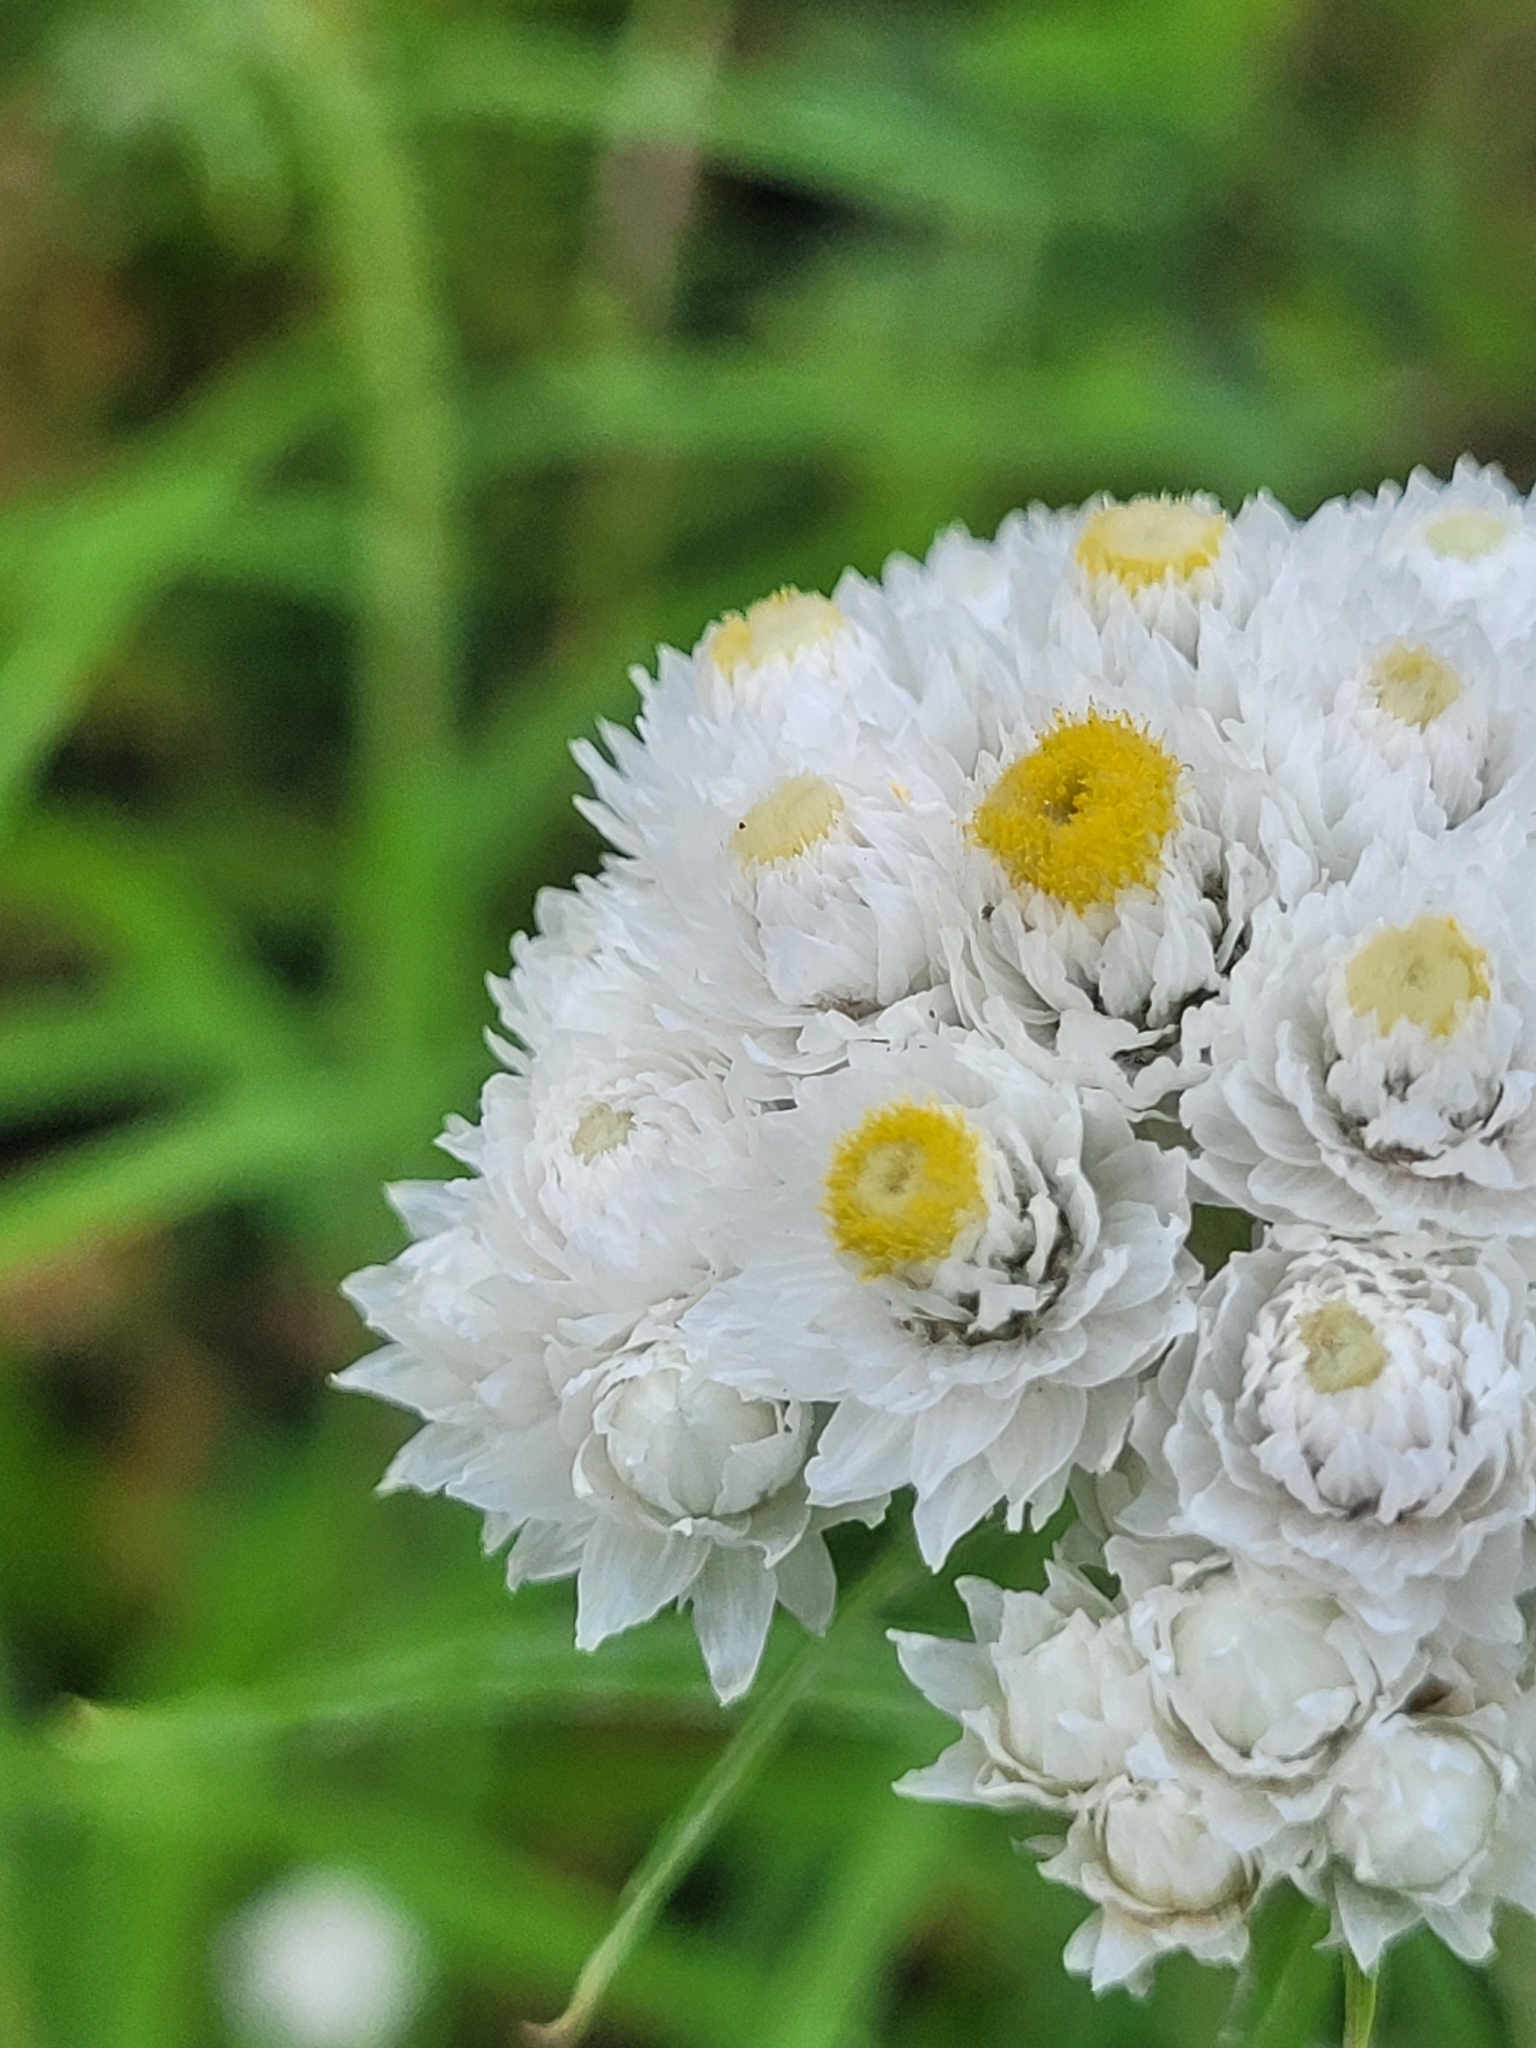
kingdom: Plantae
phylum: Tracheophyta
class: Magnoliopsida
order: Asterales
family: Asteraceae
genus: Anaphalis
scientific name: Anaphalis margaritacea
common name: Pearly everlasting
